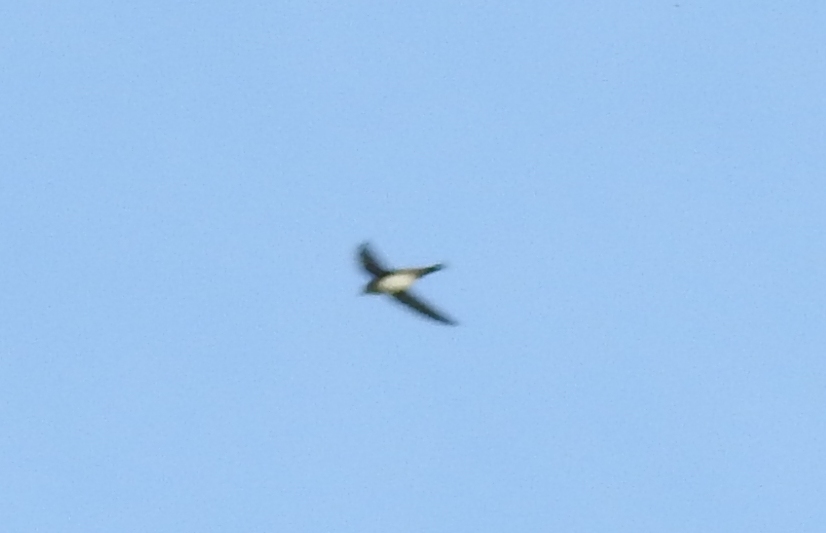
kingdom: Animalia
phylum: Chordata
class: Aves
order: Apodiformes
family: Apodidae
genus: Tachymarptis
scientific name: Tachymarptis melba
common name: Alpine swift
